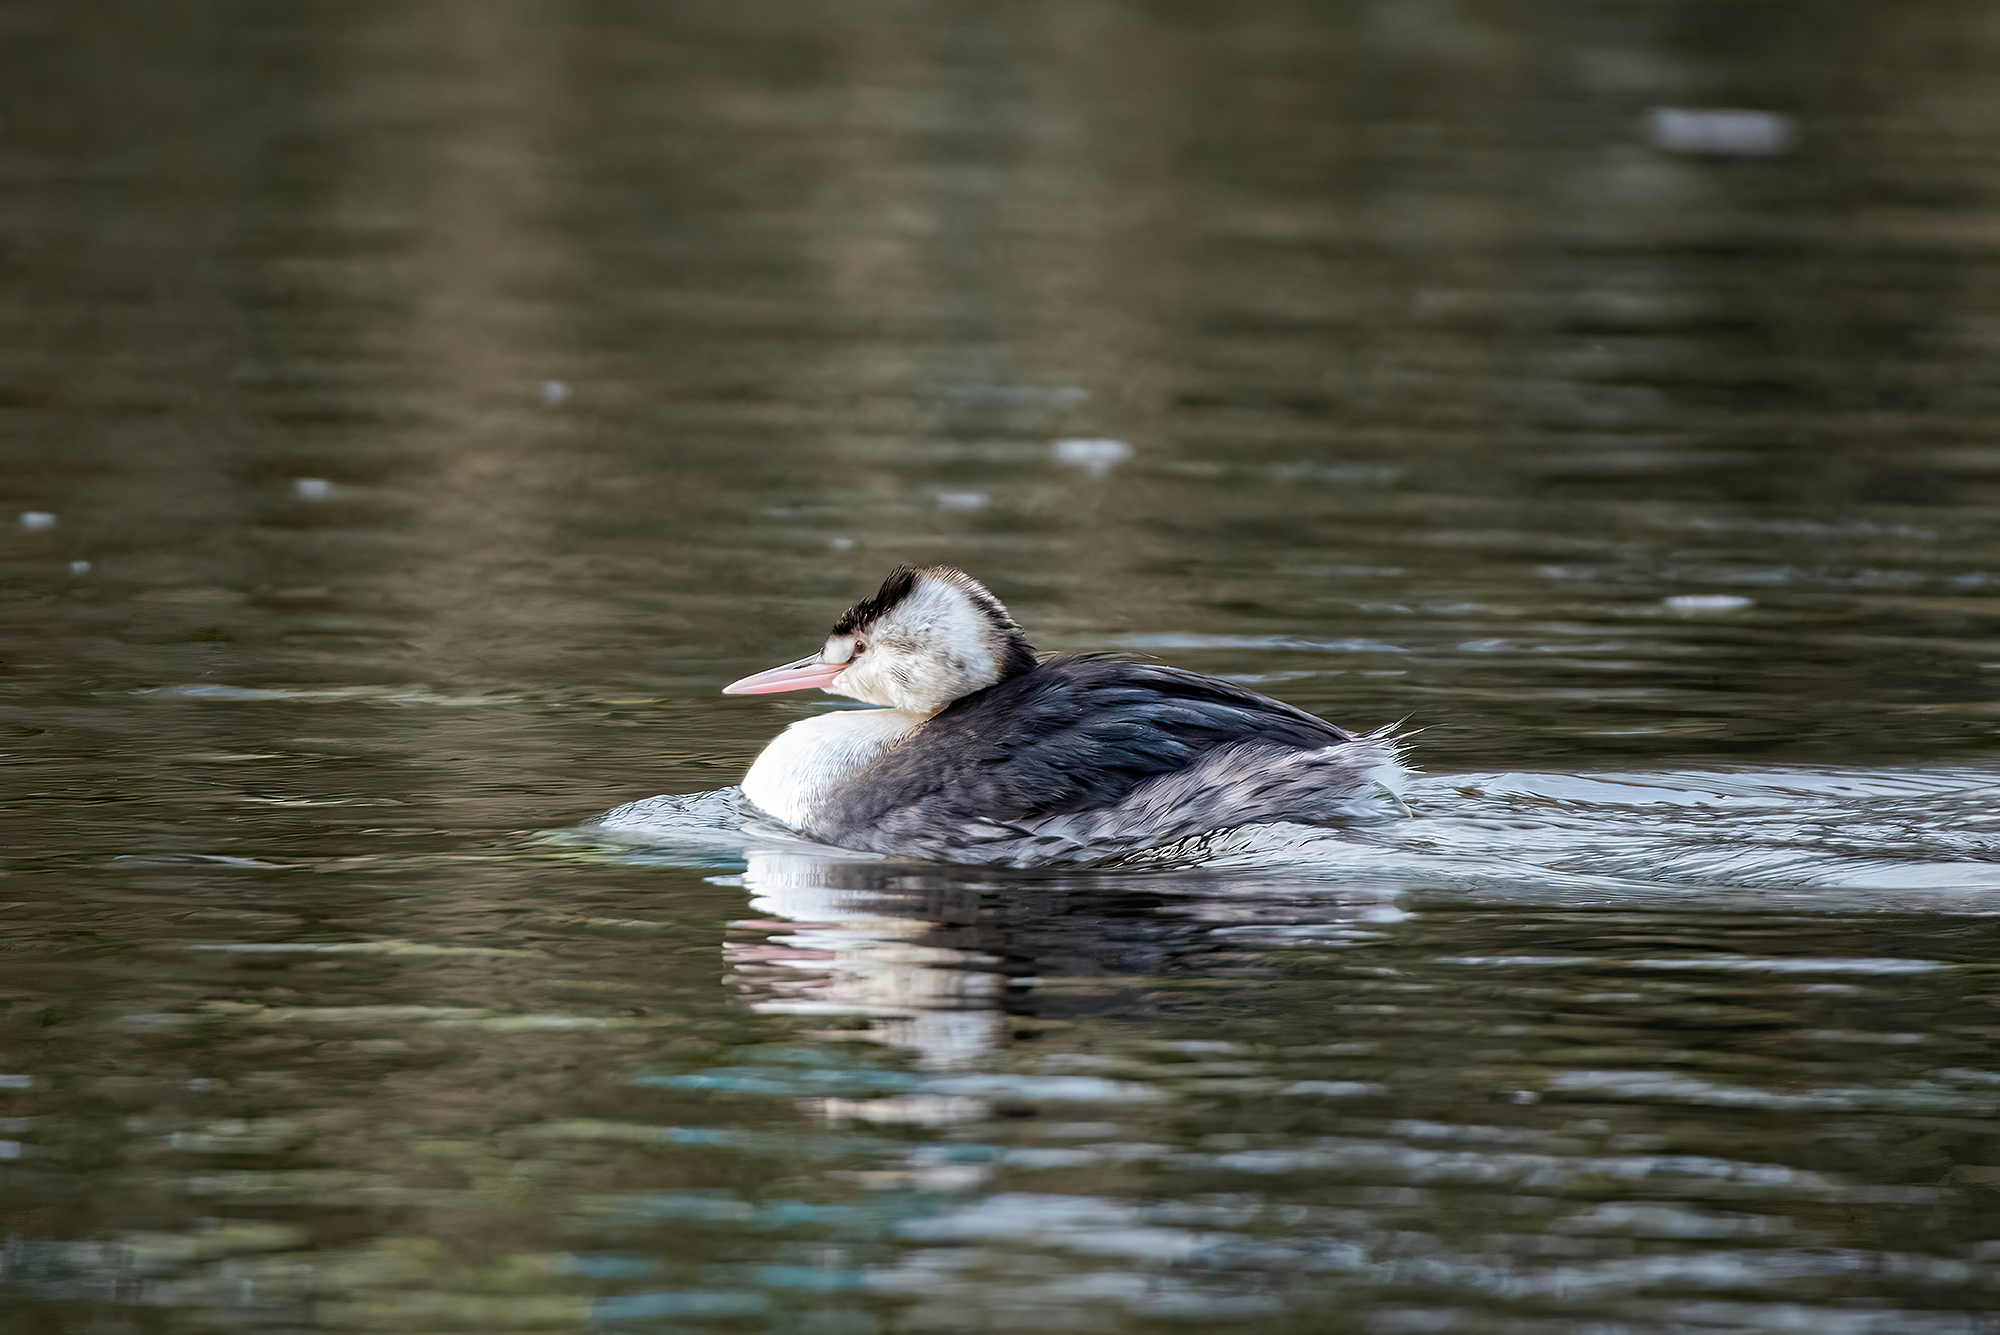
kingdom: Animalia
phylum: Chordata
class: Aves
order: Podicipediformes
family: Podicipedidae
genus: Podiceps
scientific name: Podiceps cristatus
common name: Great crested grebe
